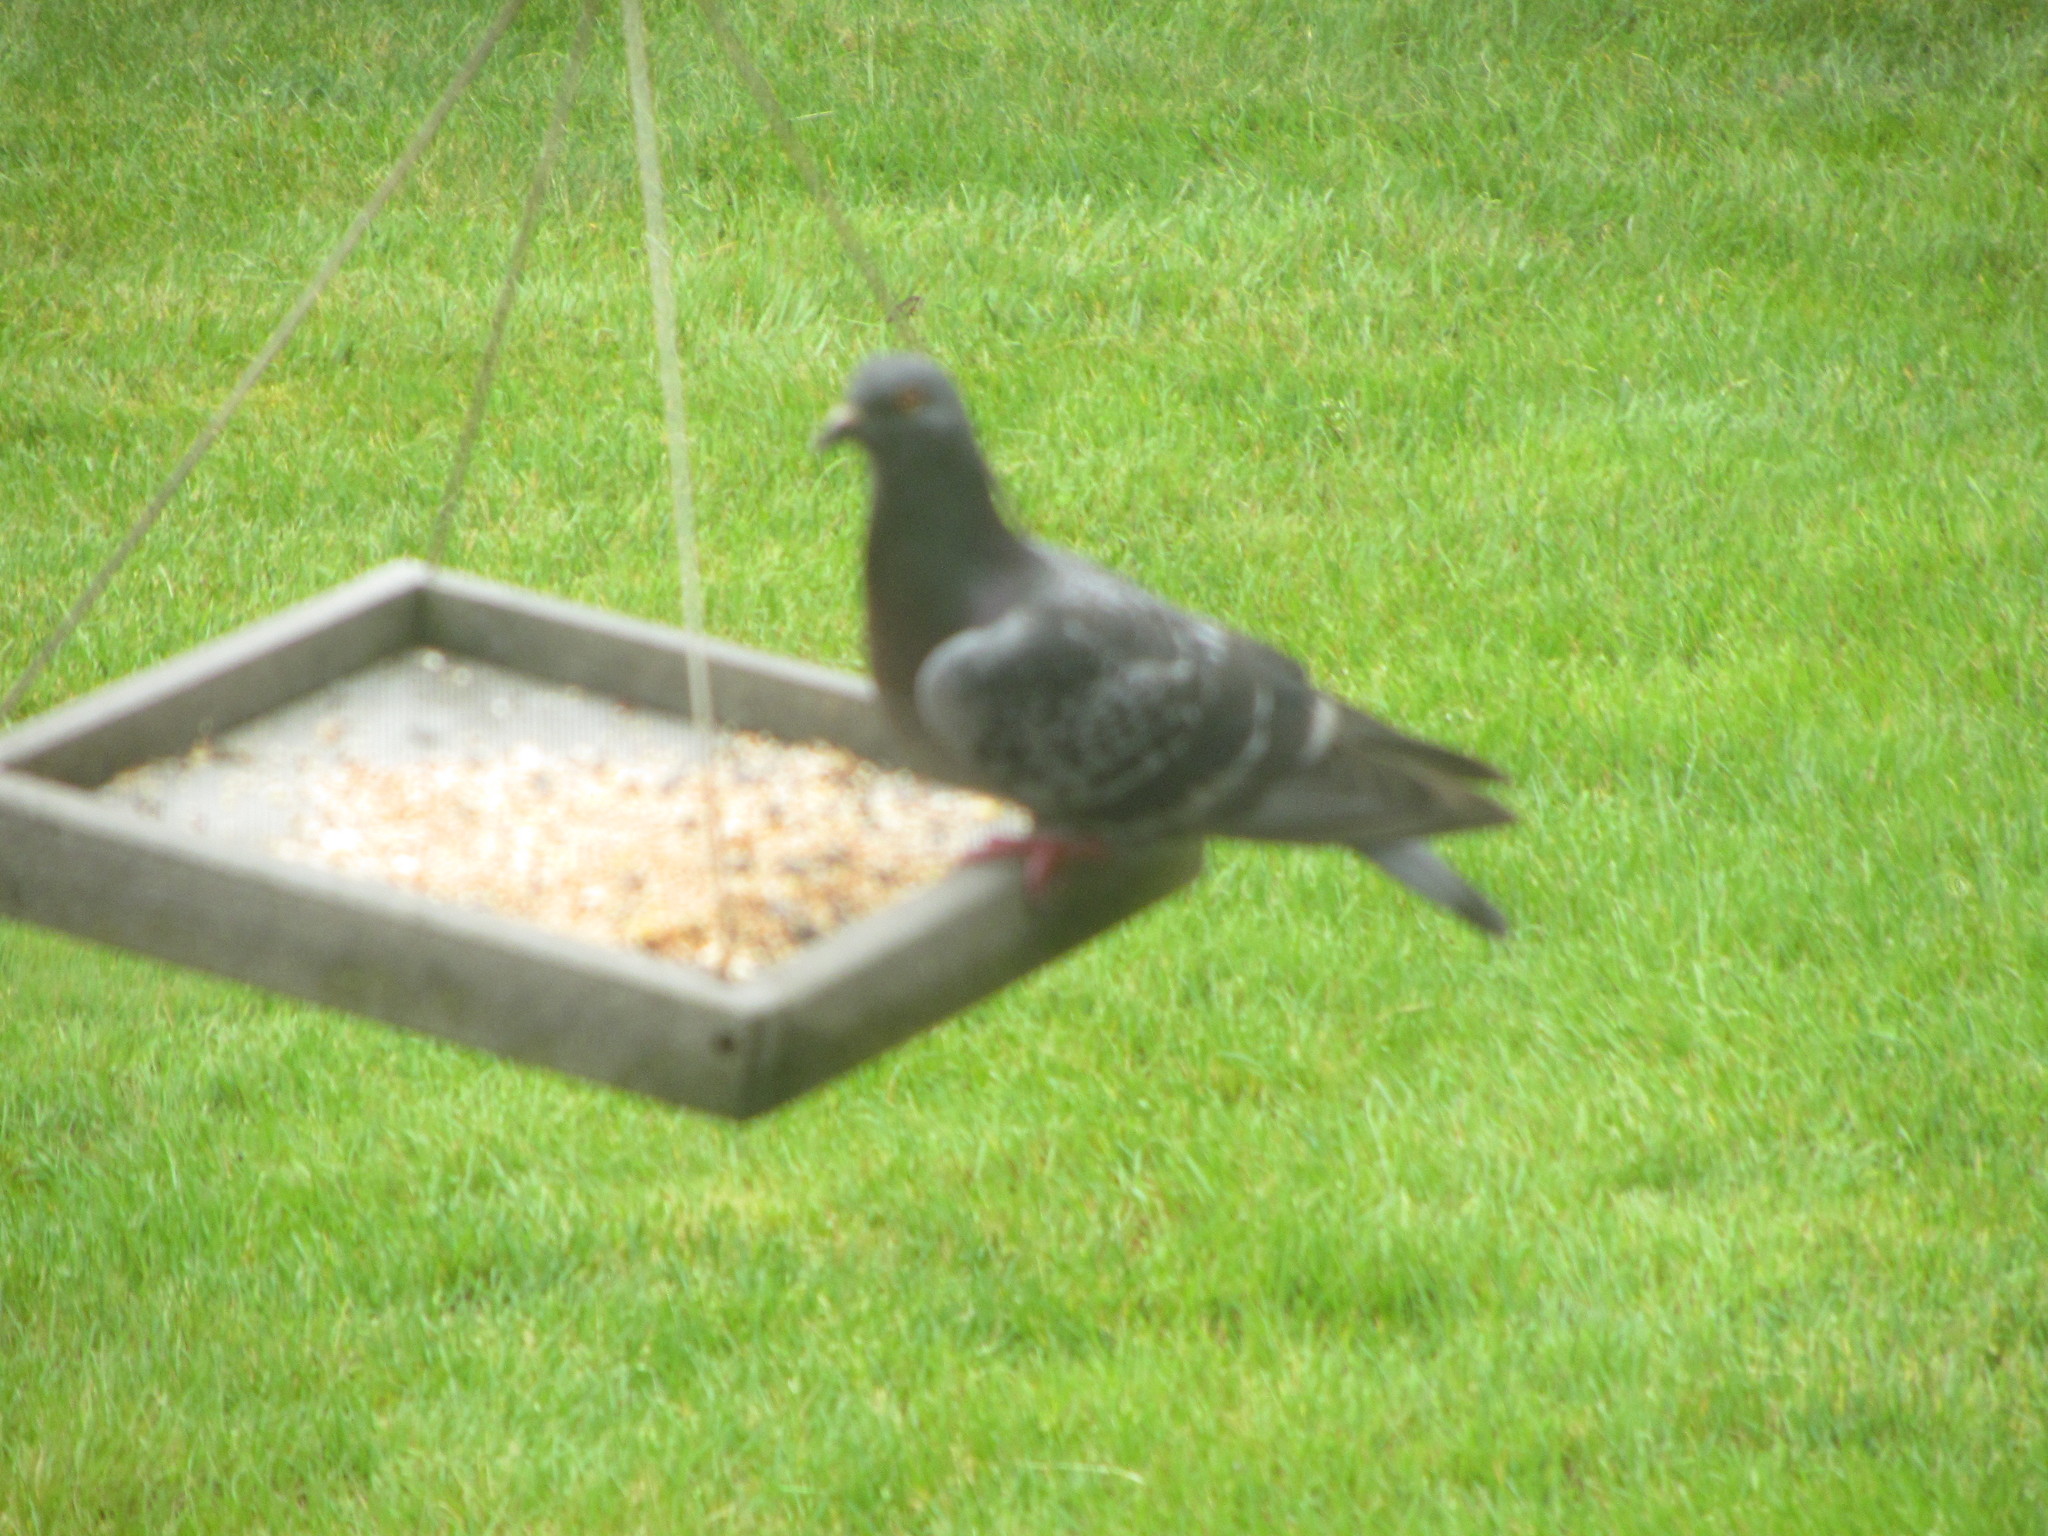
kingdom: Animalia
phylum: Chordata
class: Aves
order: Columbiformes
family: Columbidae
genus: Columba
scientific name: Columba livia
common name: Rock pigeon
